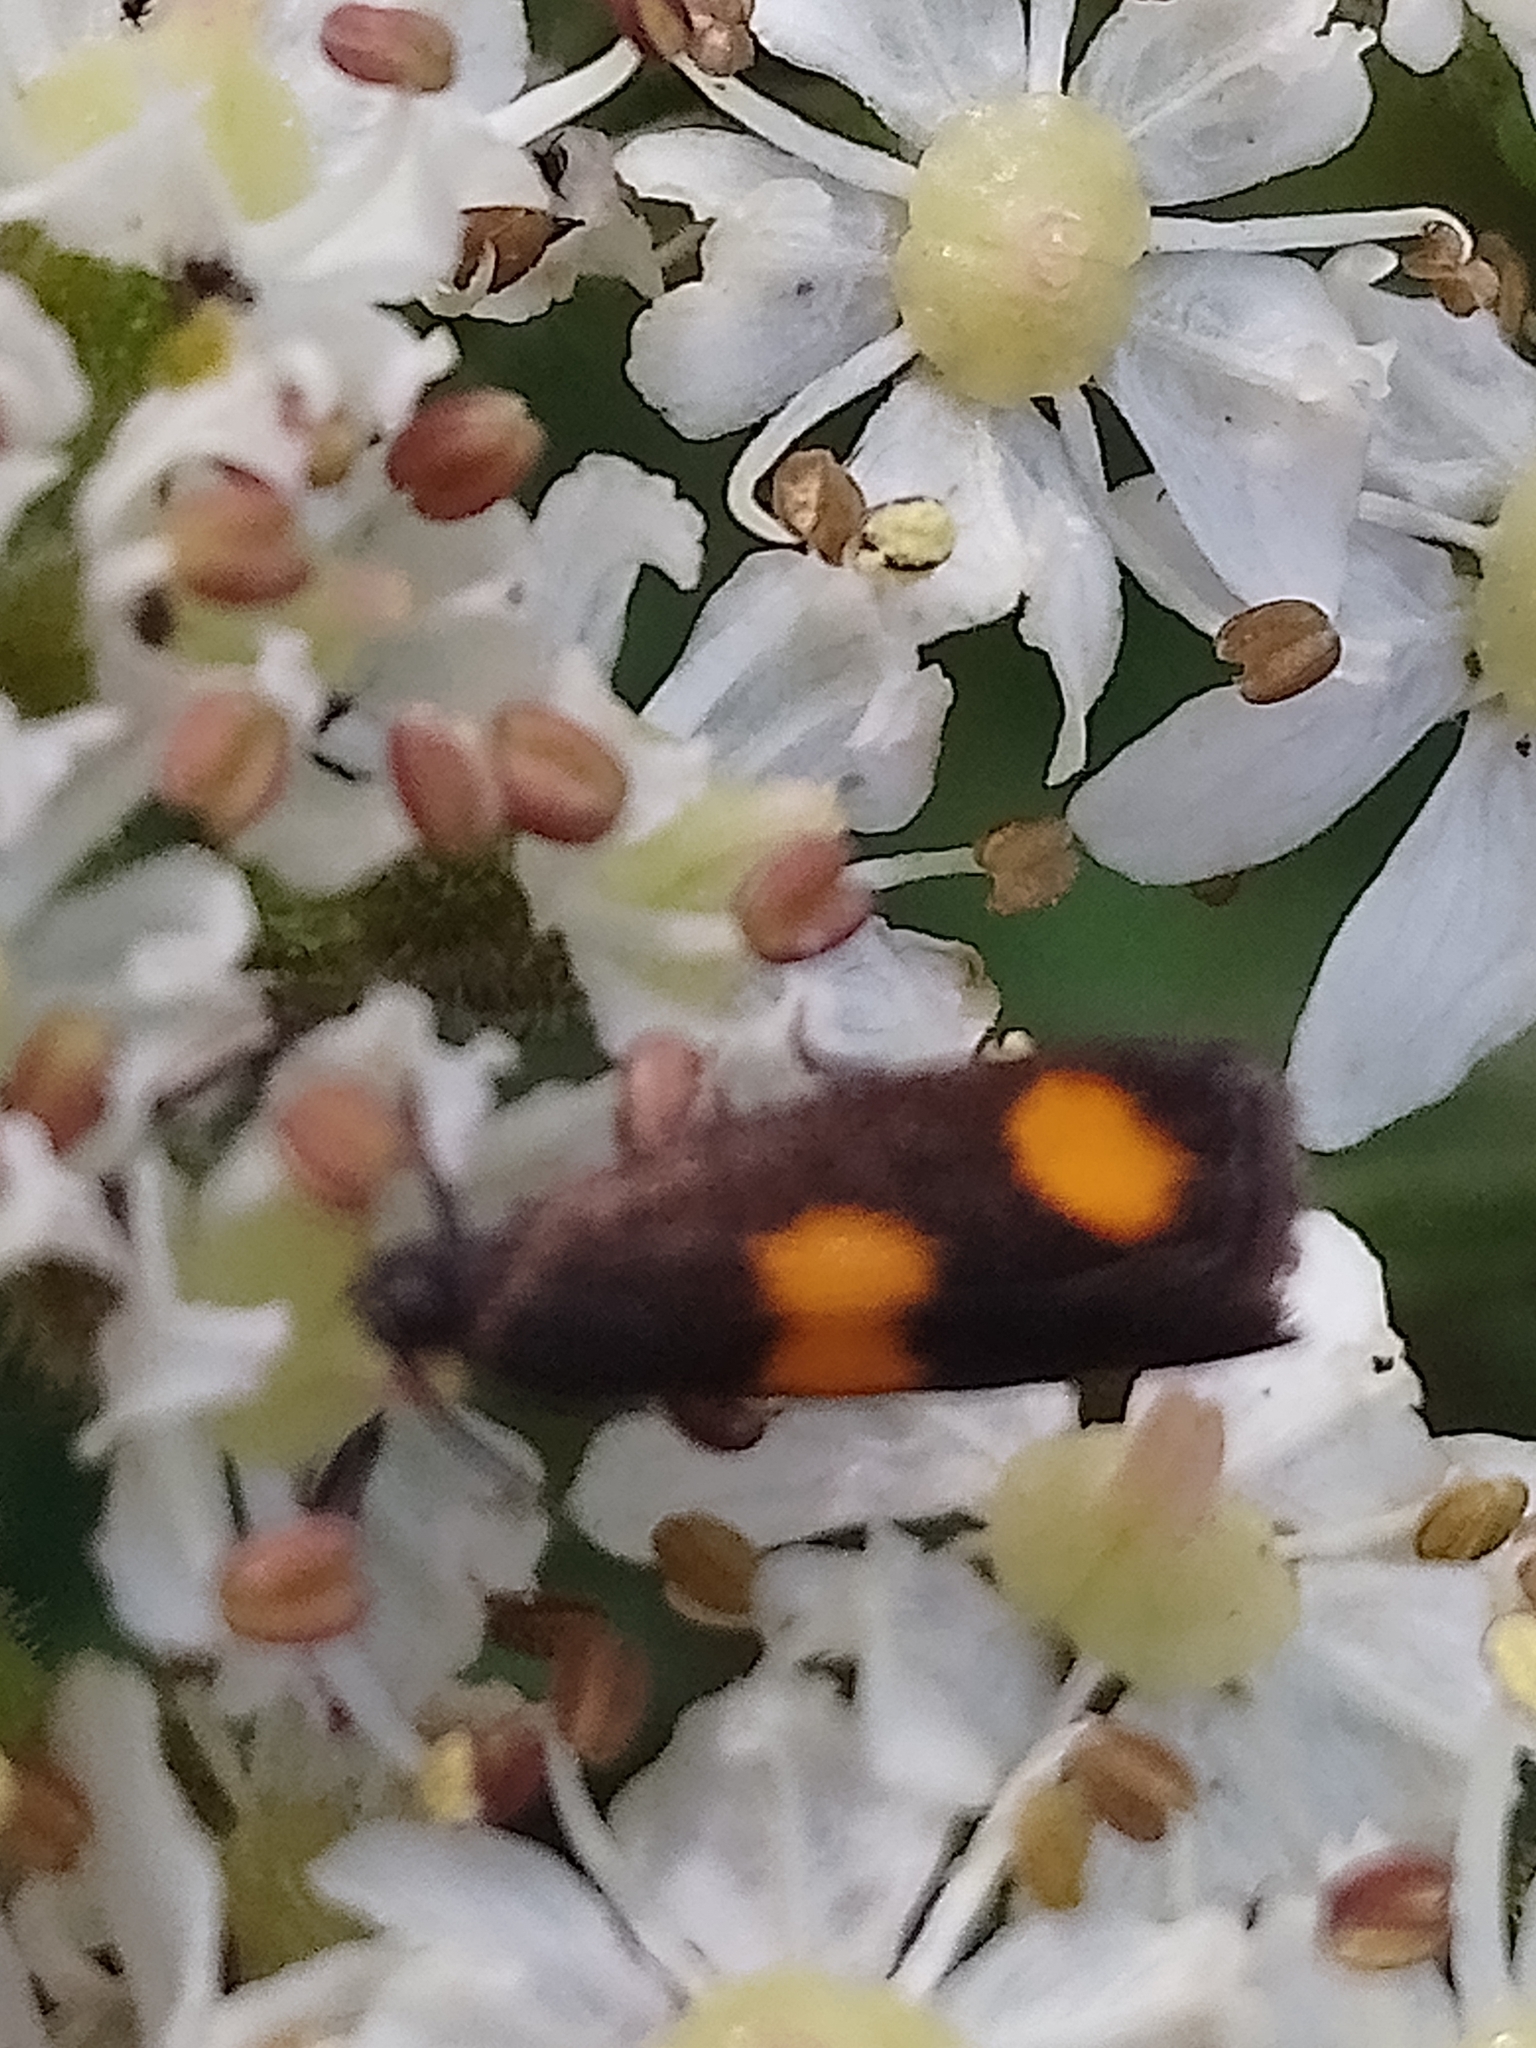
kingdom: Animalia
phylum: Arthropoda
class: Insecta
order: Lepidoptera
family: Tortricidae
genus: Pammene
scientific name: Pammene aurana
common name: Orange-spot piercer
